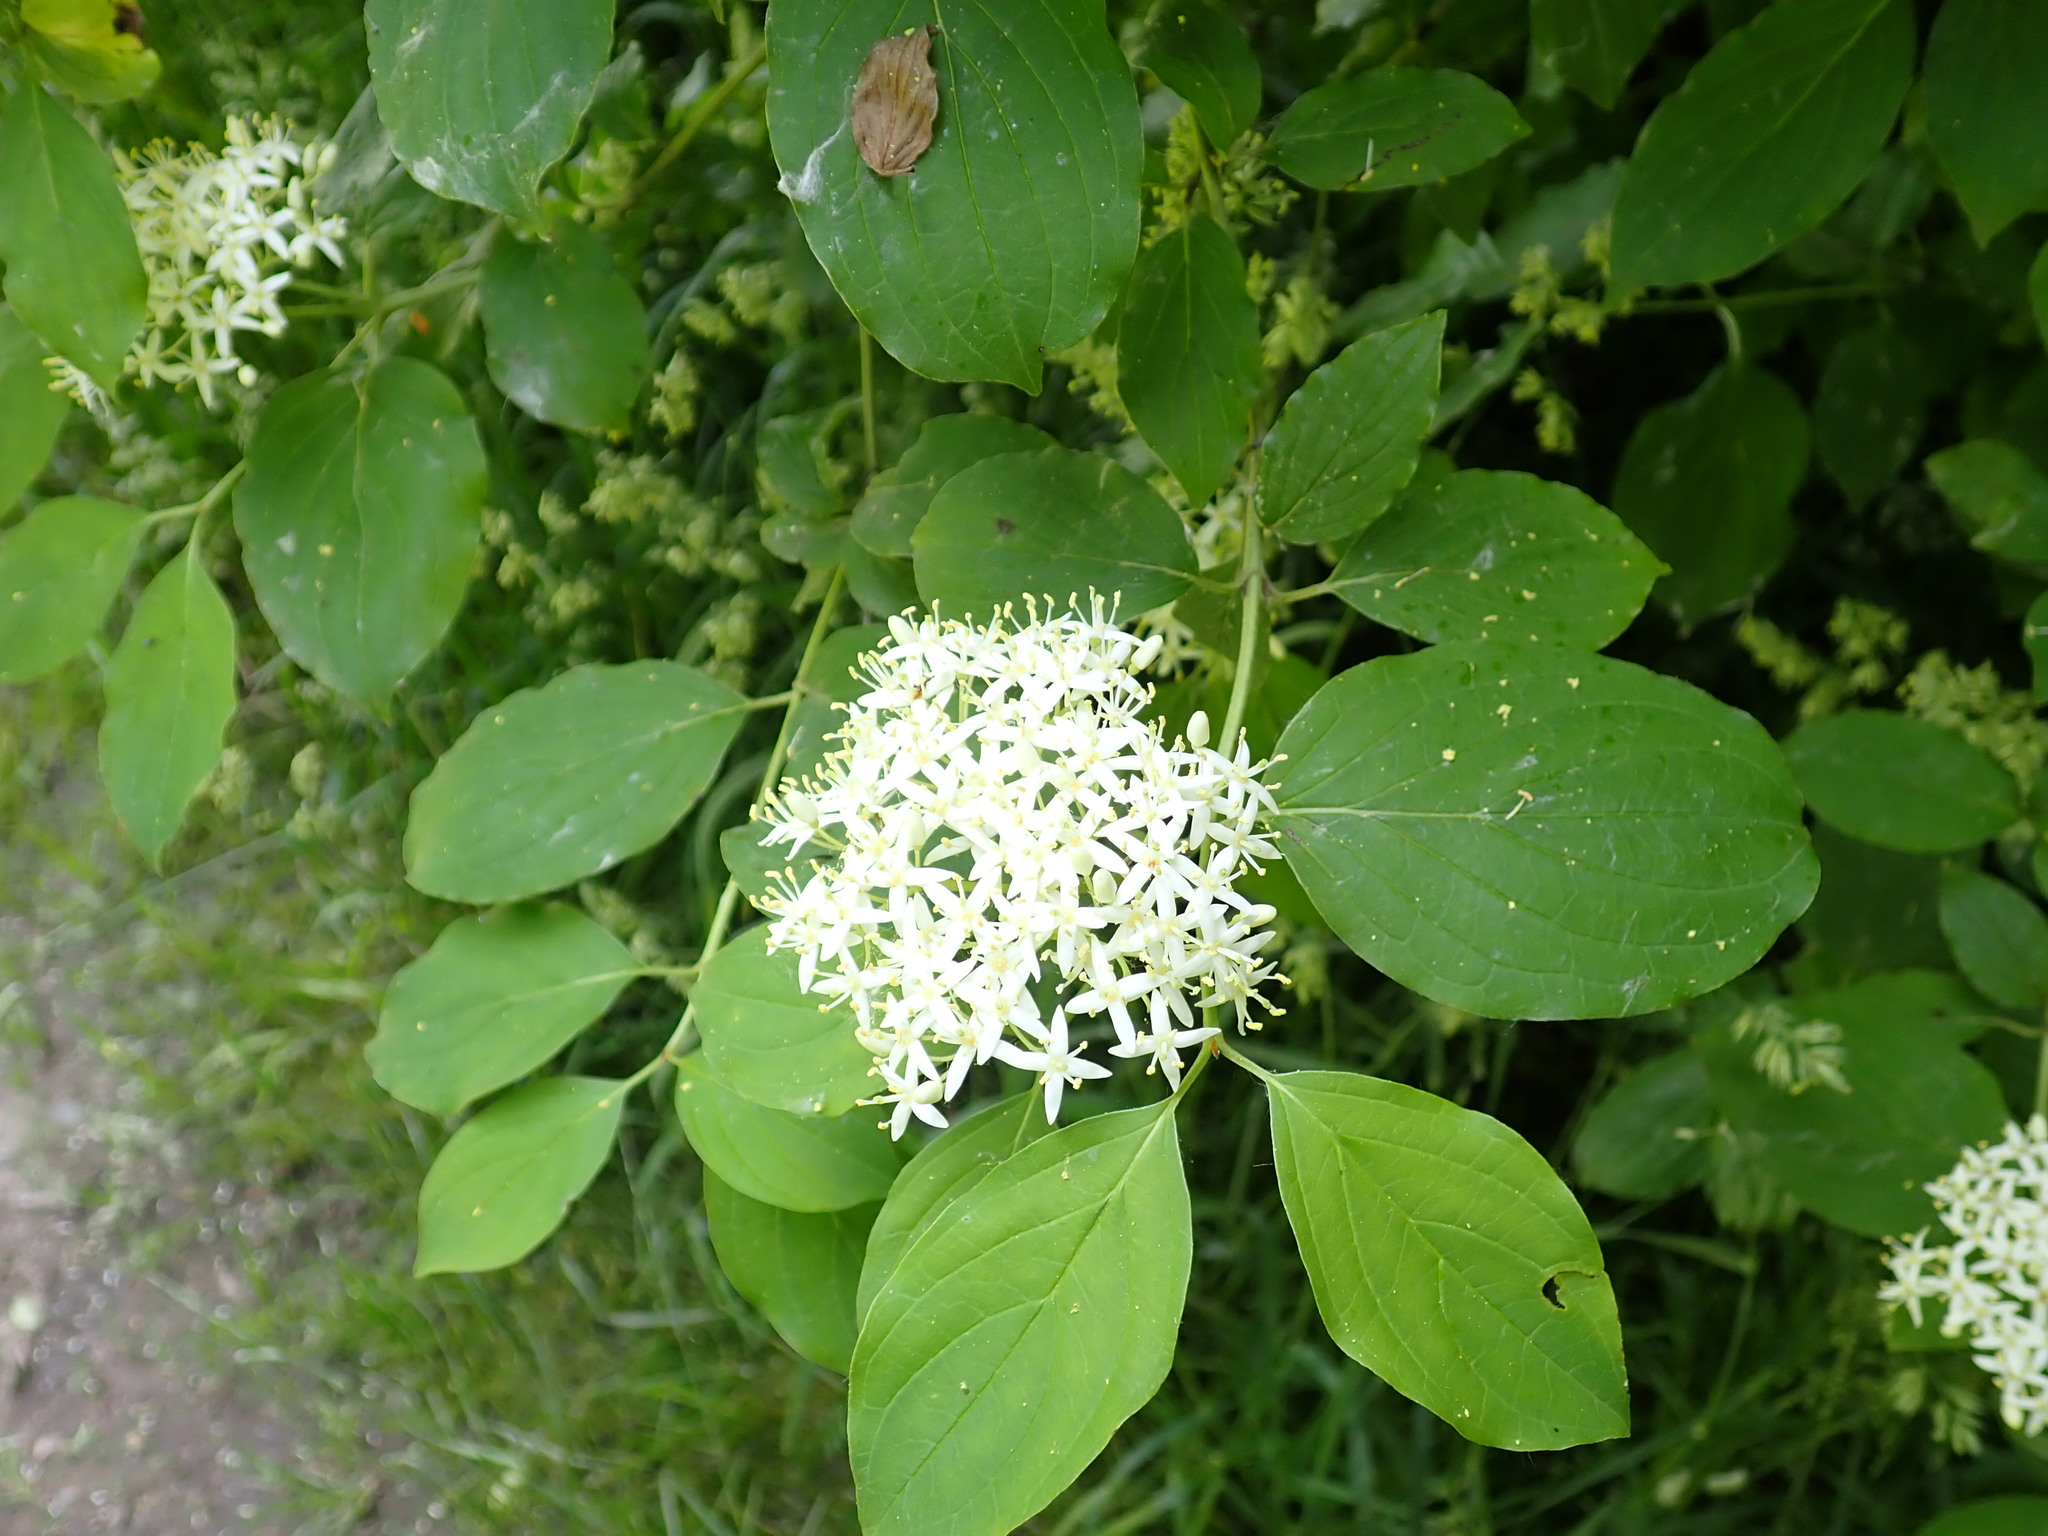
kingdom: Plantae
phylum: Tracheophyta
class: Magnoliopsida
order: Cornales
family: Cornaceae
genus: Cornus
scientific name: Cornus sanguinea
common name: Dogwood
